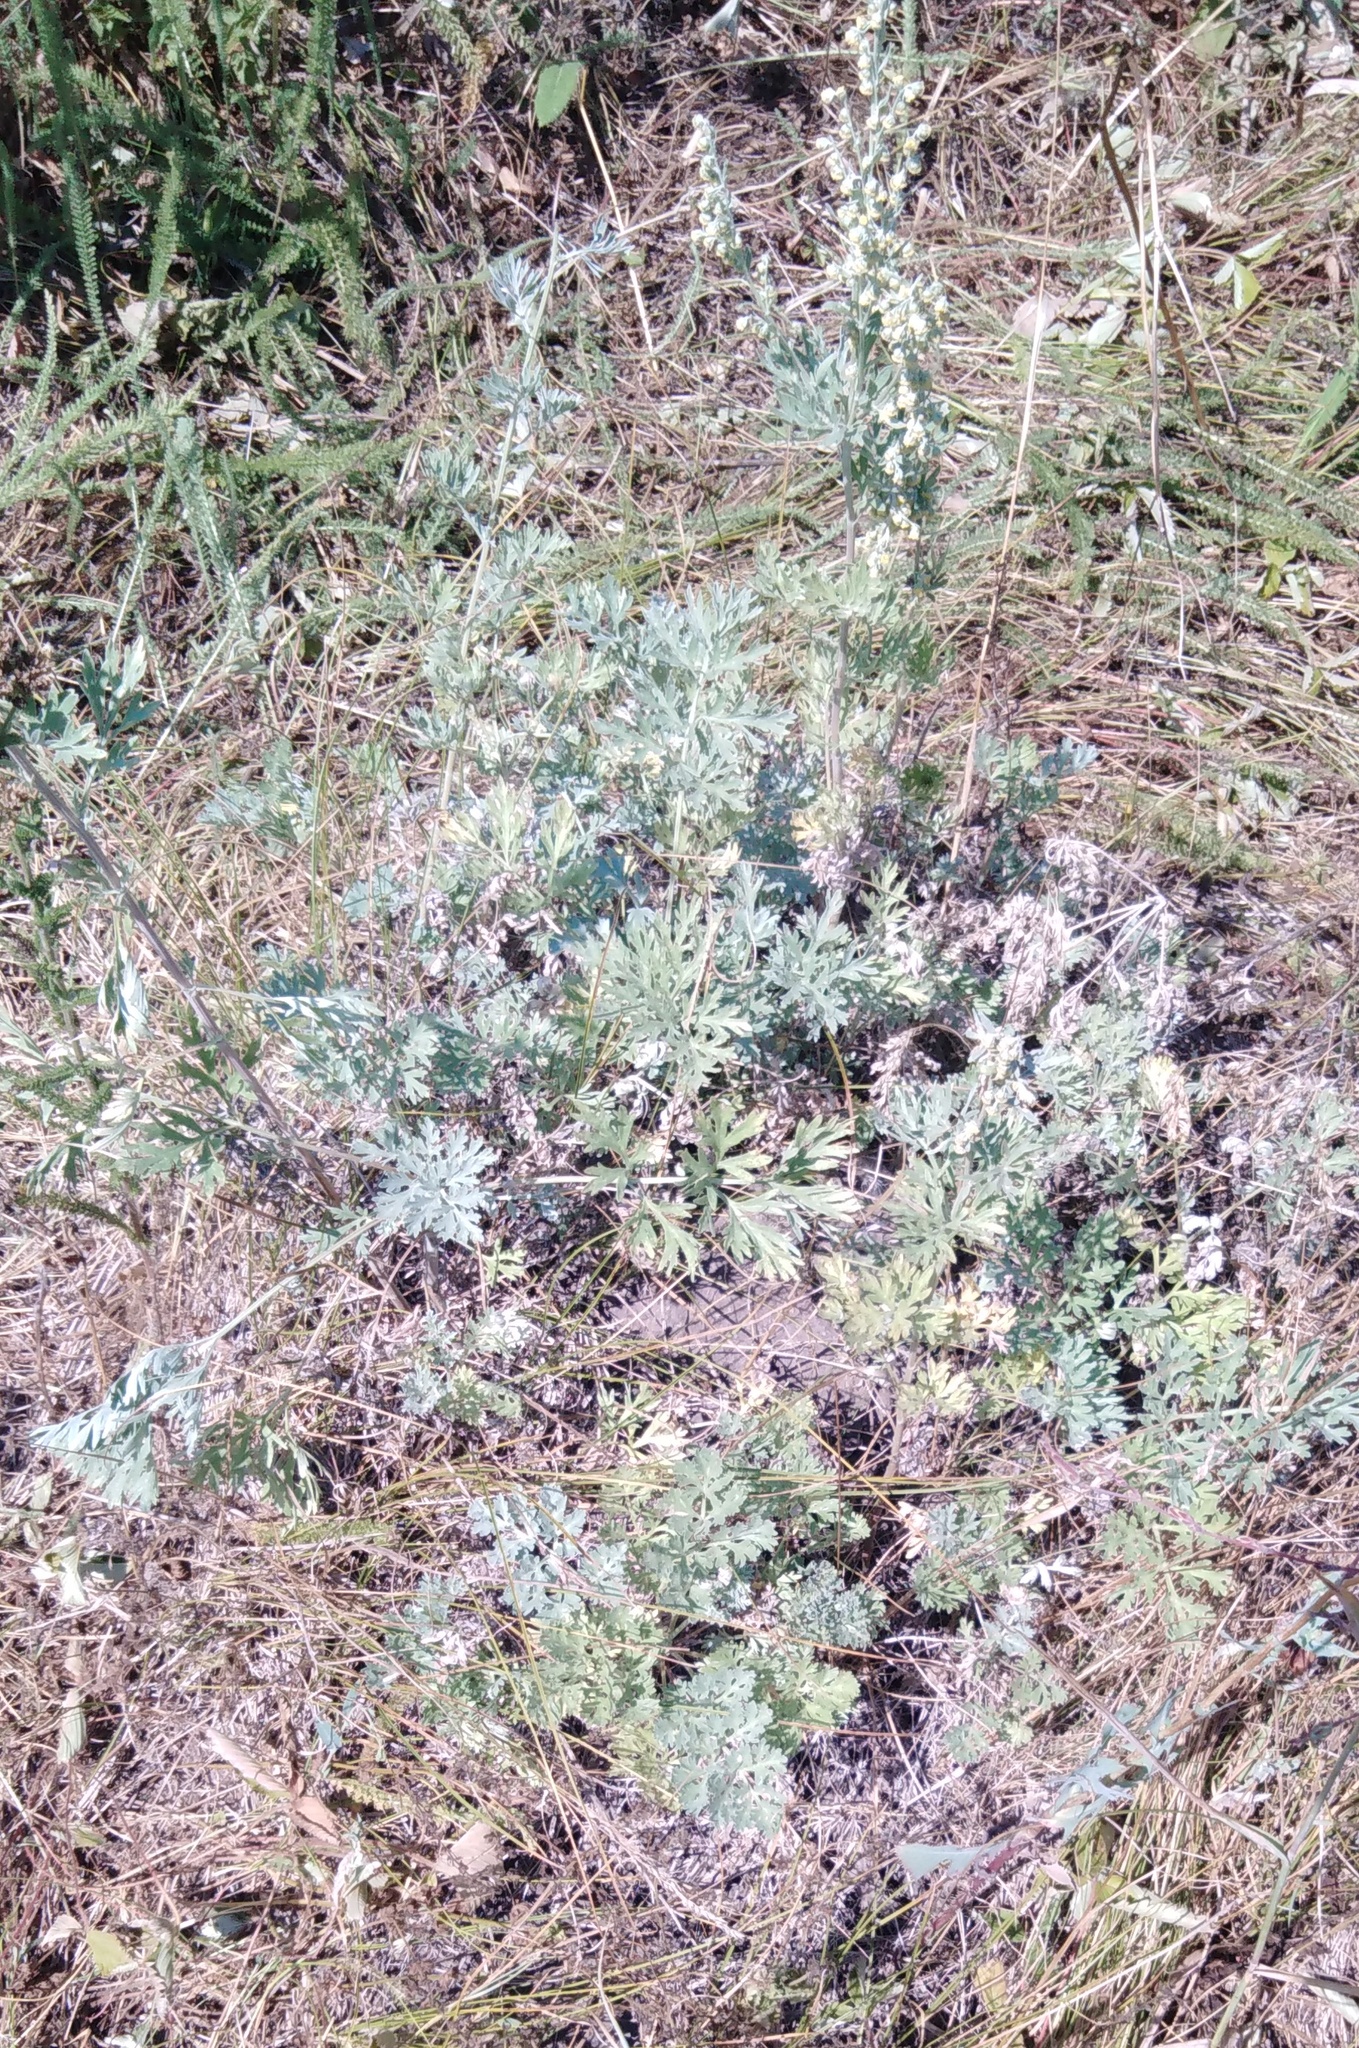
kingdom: Plantae
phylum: Tracheophyta
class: Magnoliopsida
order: Asterales
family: Asteraceae
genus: Artemisia
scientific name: Artemisia absinthium
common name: Wormwood
